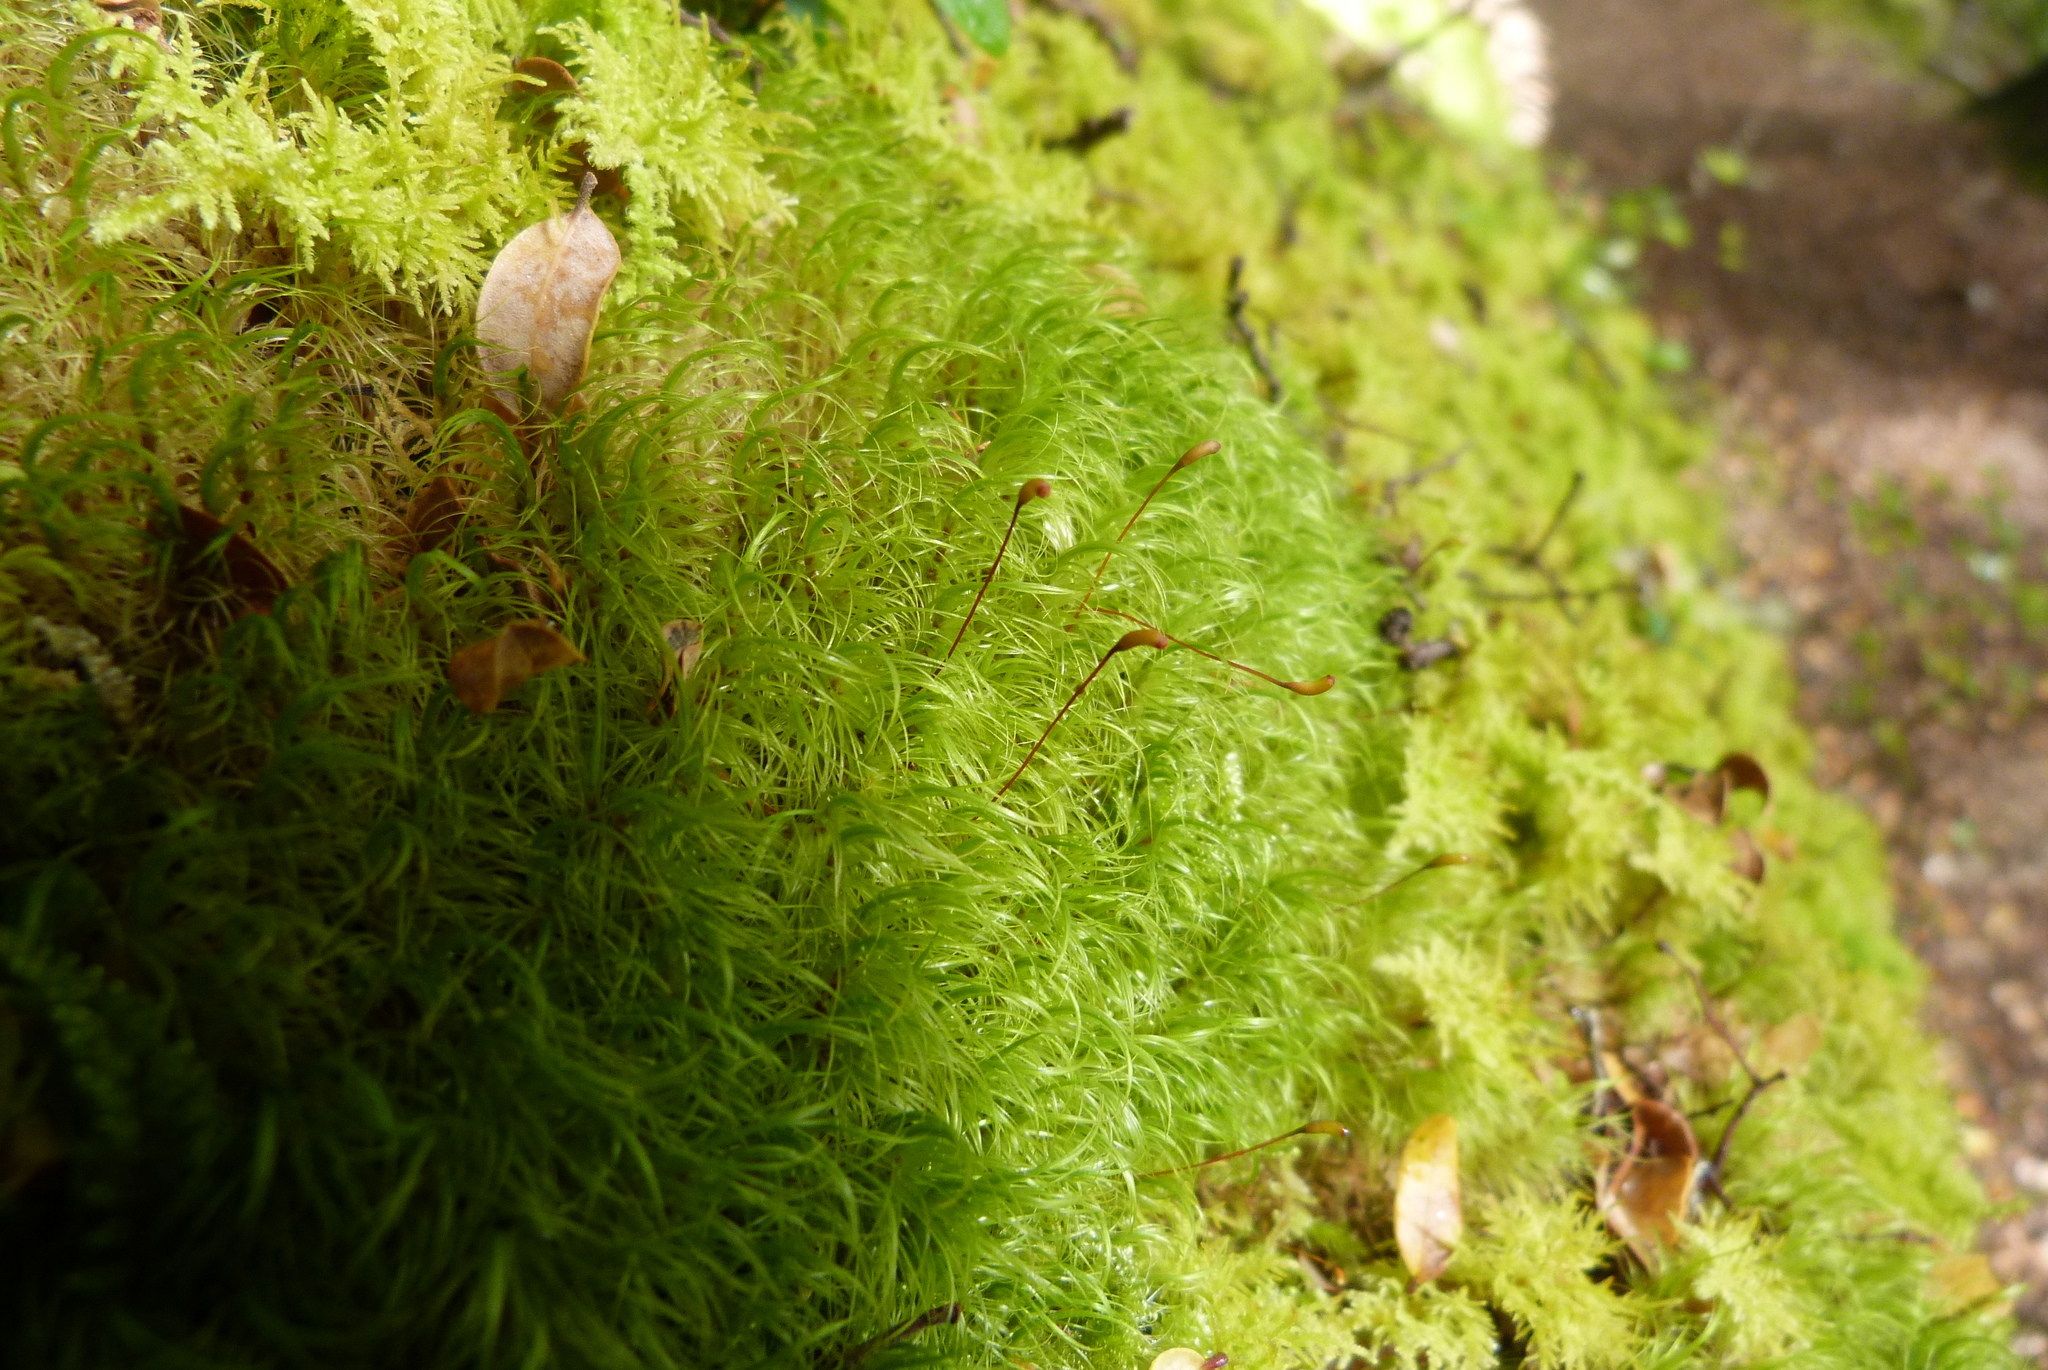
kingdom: Plantae
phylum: Bryophyta
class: Bryopsida
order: Dicranales
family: Dicranaceae
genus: Dicranoloma
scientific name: Dicranoloma billardieri
